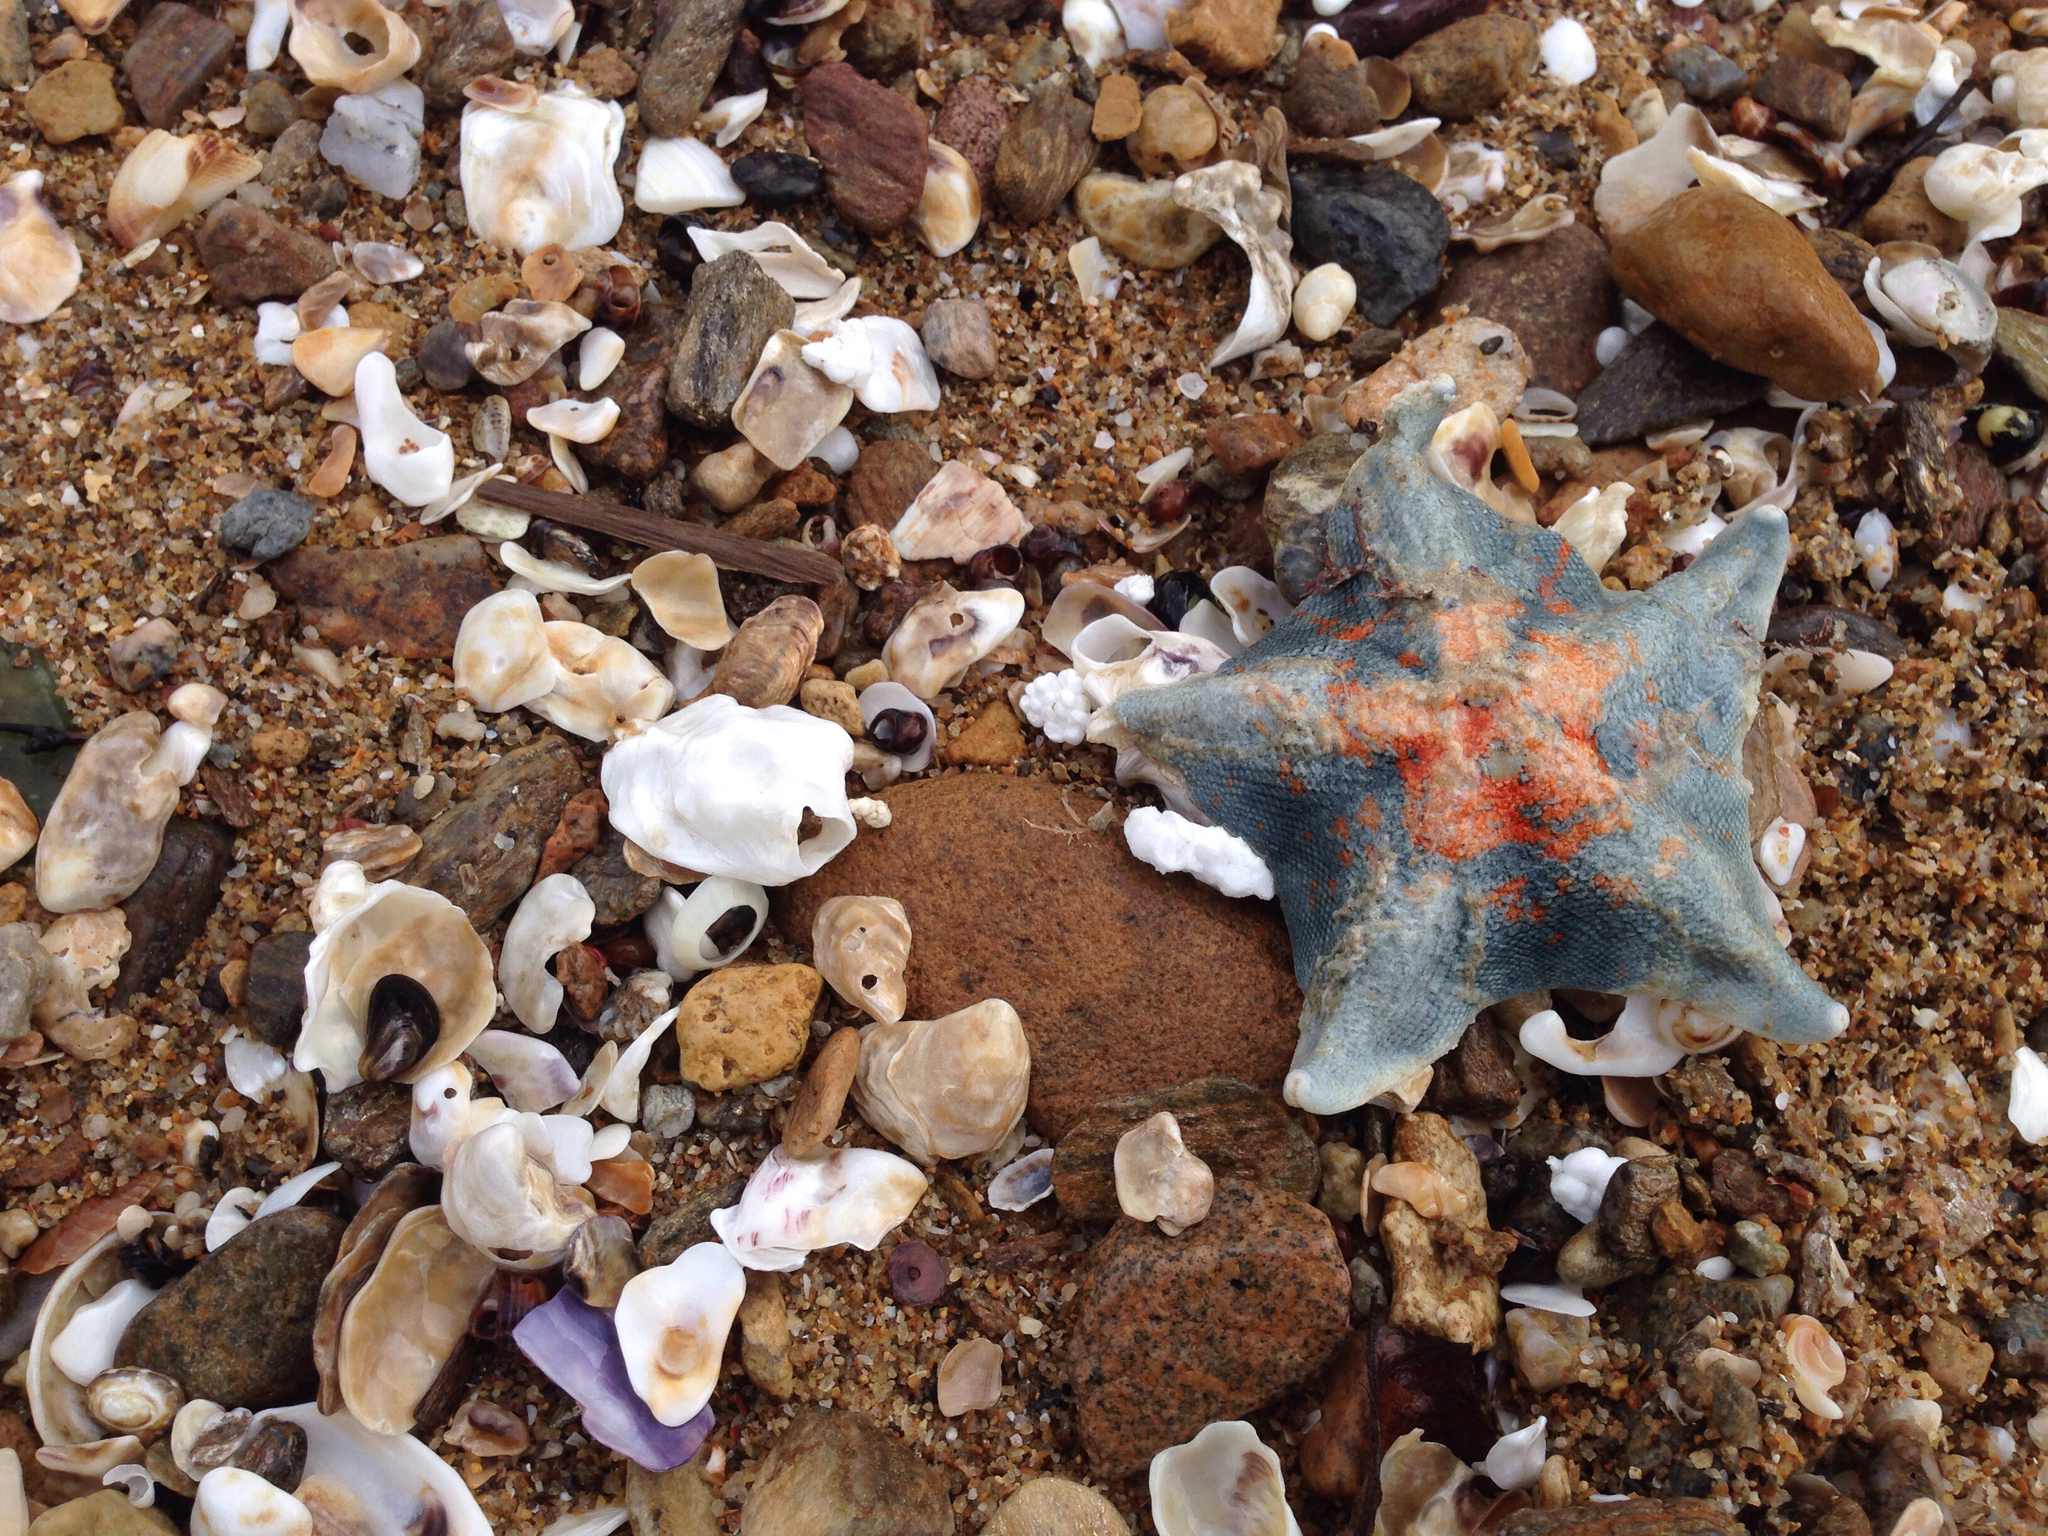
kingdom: Animalia
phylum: Echinodermata
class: Asteroidea
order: Valvatida
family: Asterinidae
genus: Patiria
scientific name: Patiria pectinifera
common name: Blue bat star
